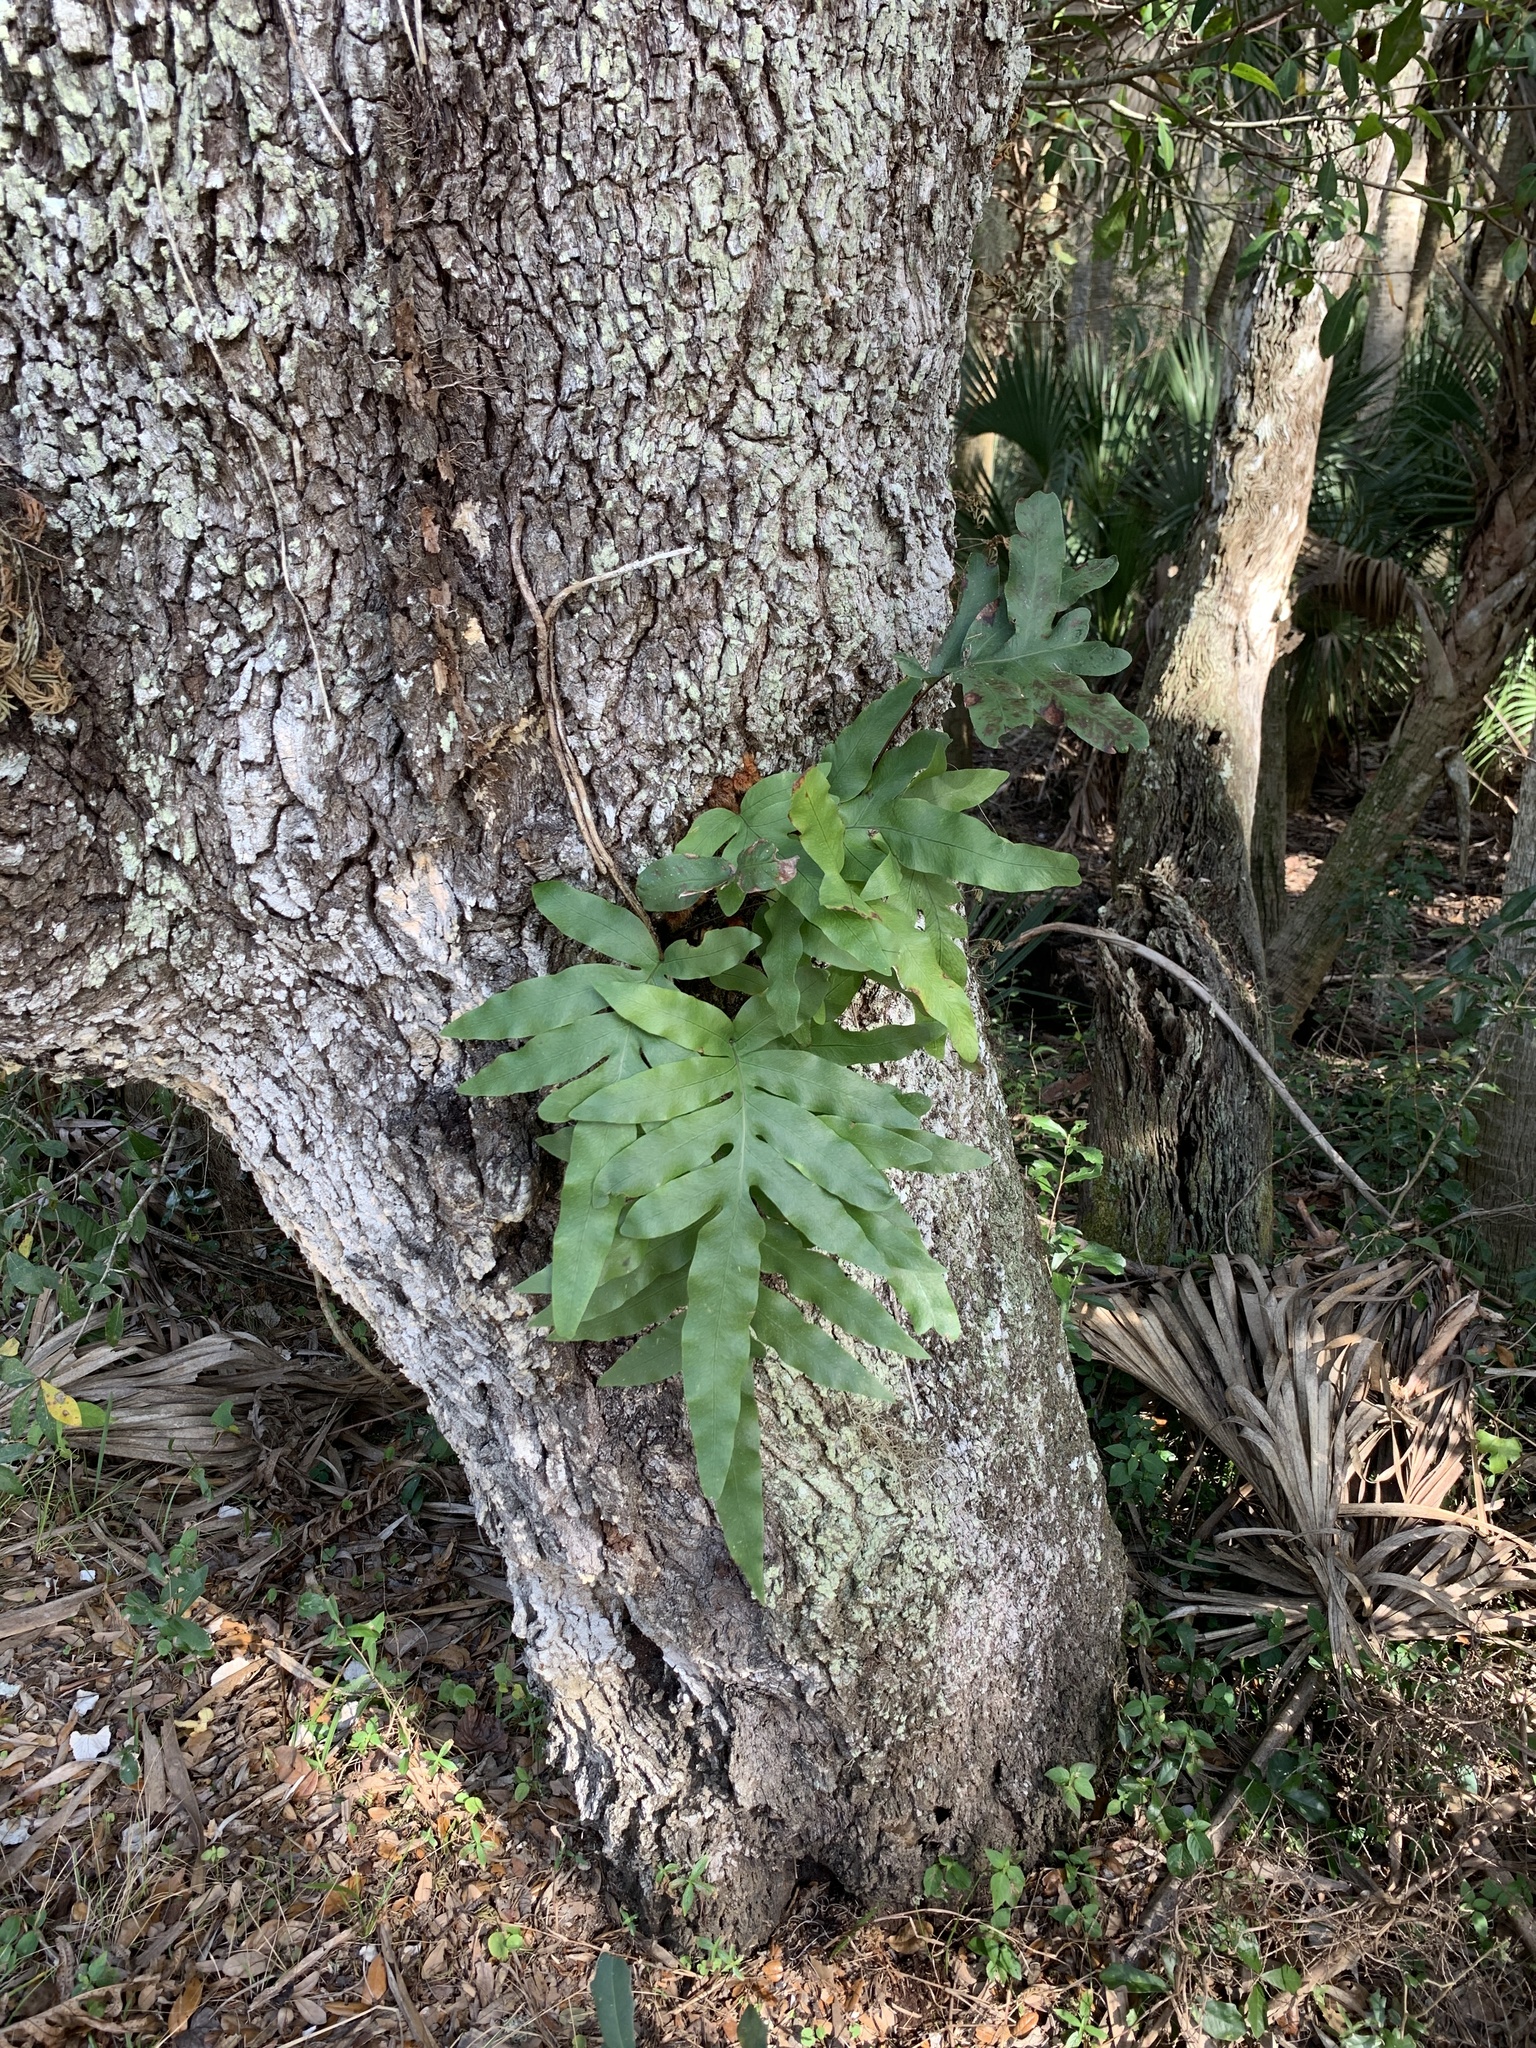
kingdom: Plantae
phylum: Tracheophyta
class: Polypodiopsida
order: Polypodiales
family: Polypodiaceae
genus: Phlebodium
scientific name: Phlebodium aureum
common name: Gold-foot fern
